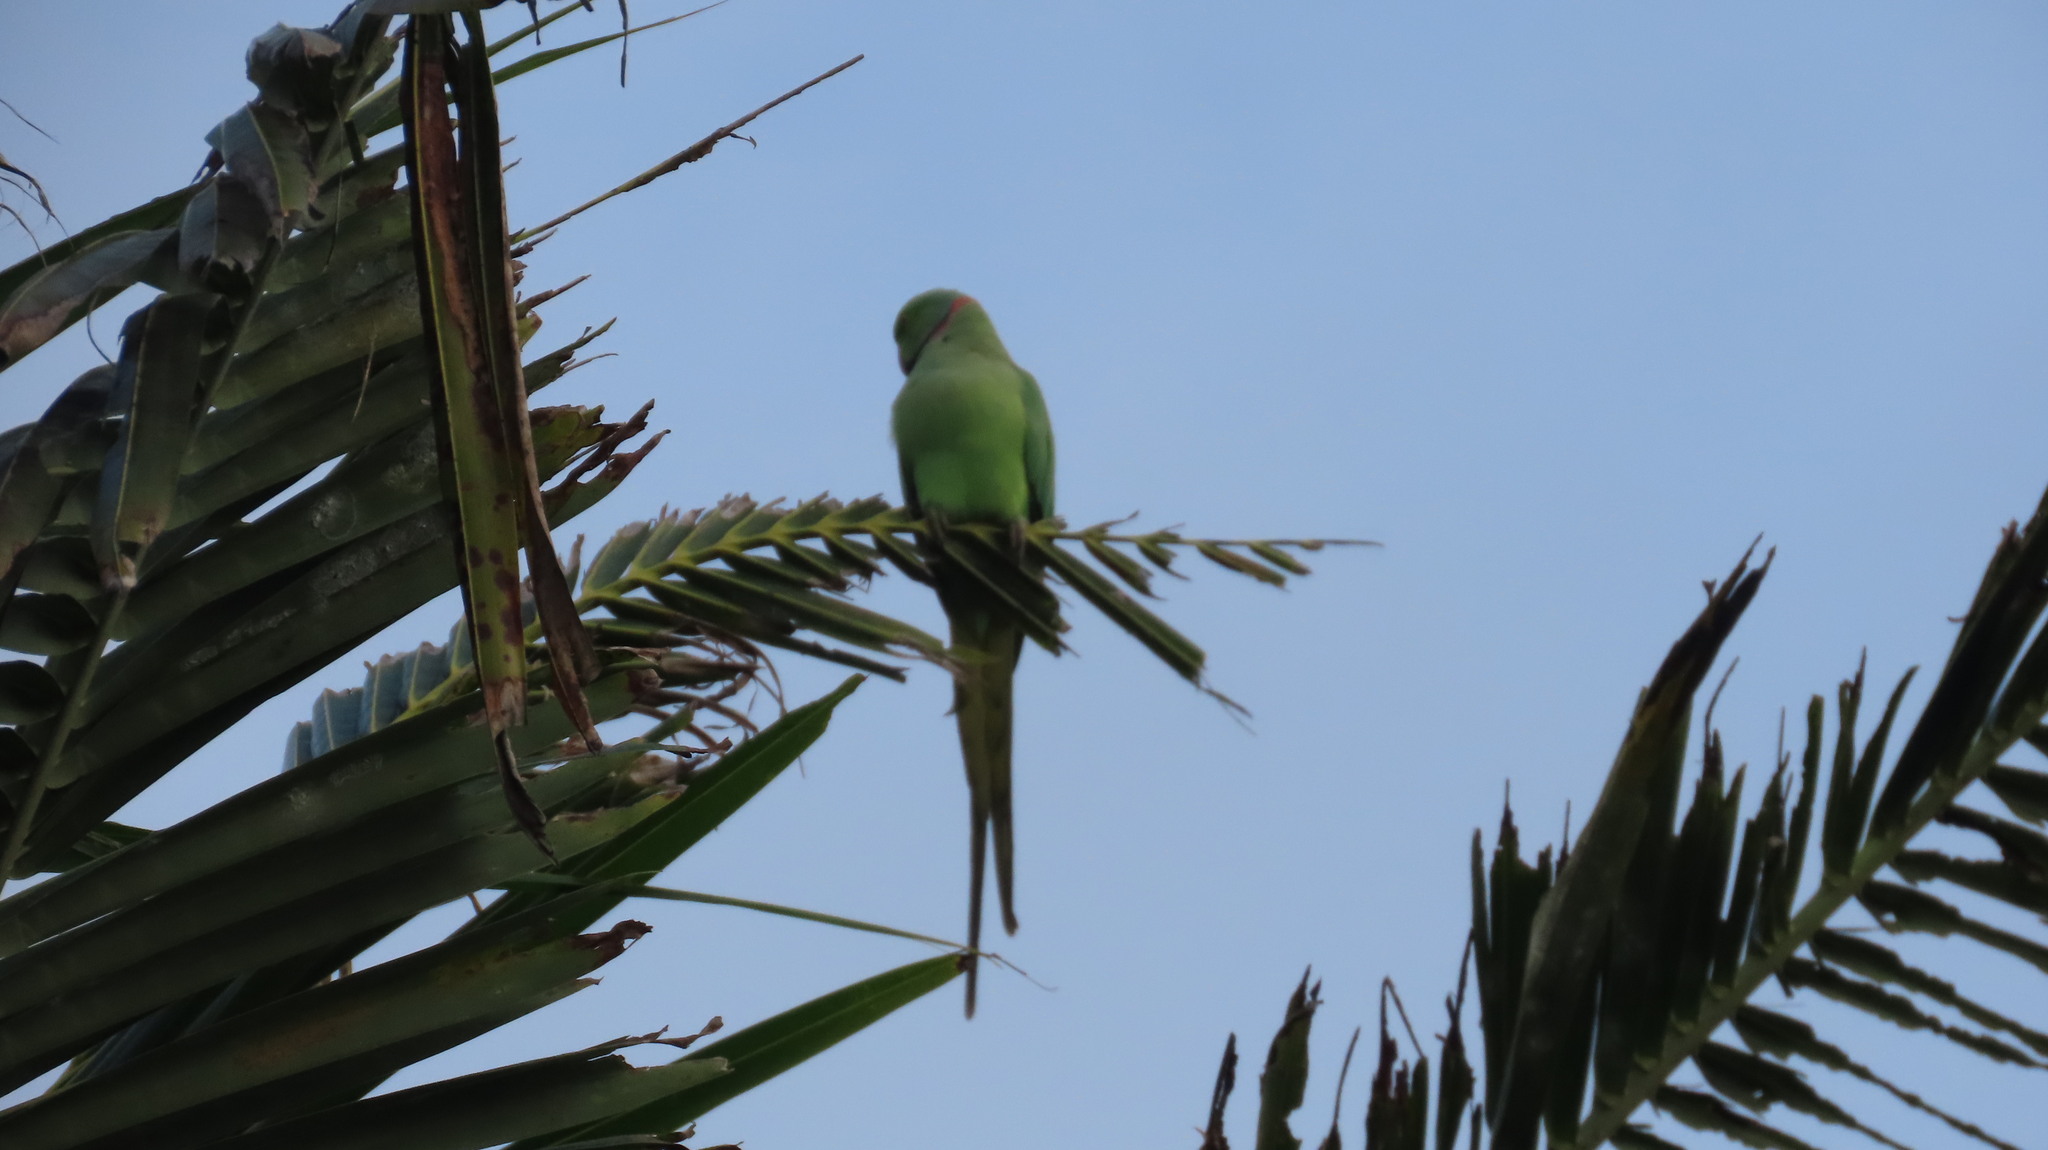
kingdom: Animalia
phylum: Chordata
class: Aves
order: Psittaciformes
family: Psittacidae
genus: Psittacula
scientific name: Psittacula krameri
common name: Rose-ringed parakeet
